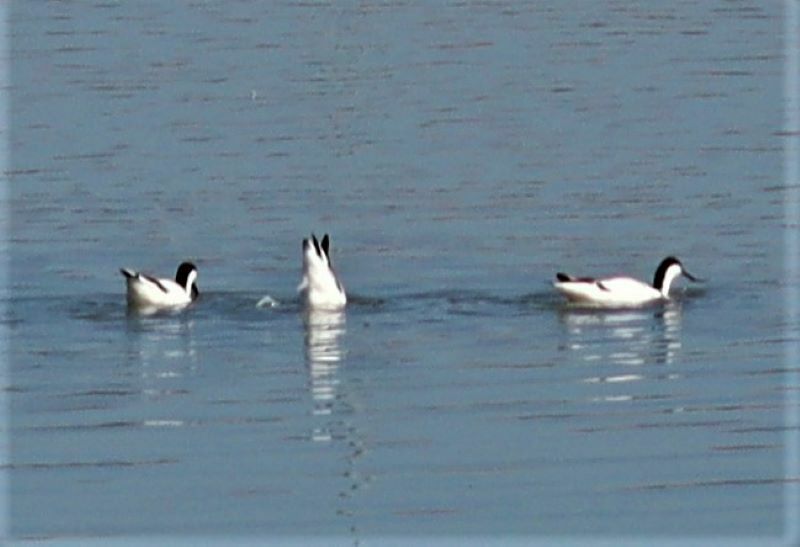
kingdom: Animalia
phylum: Chordata
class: Aves
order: Charadriiformes
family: Recurvirostridae
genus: Recurvirostra
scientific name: Recurvirostra avosetta
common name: Pied avocet
